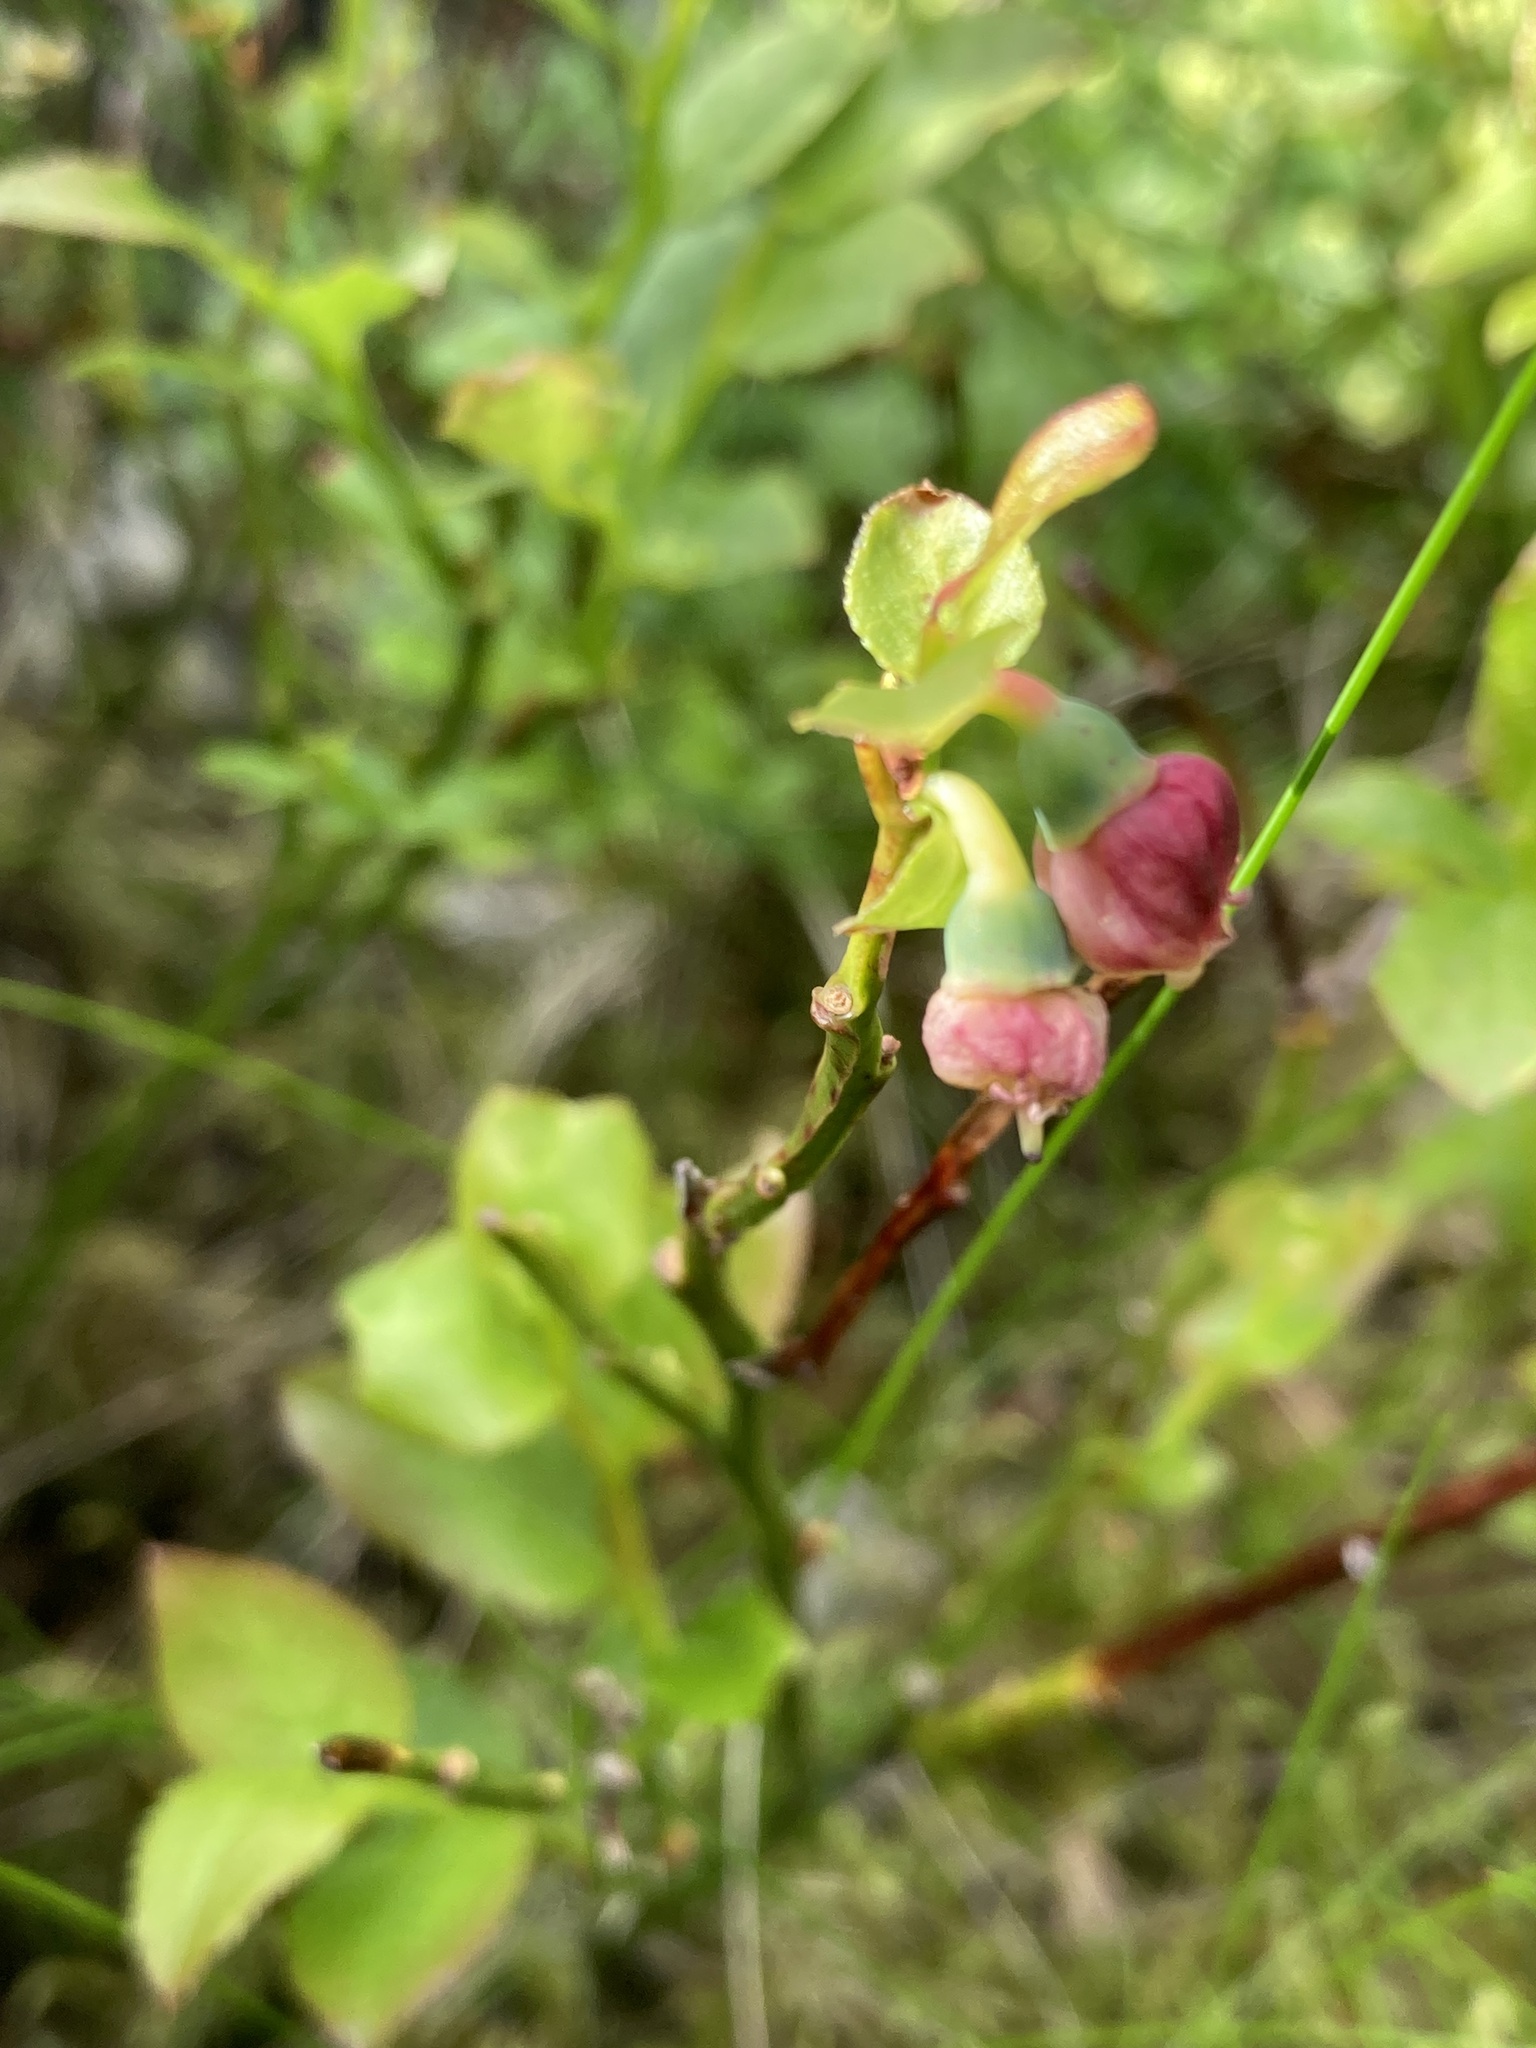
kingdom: Plantae
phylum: Tracheophyta
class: Magnoliopsida
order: Ericales
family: Ericaceae
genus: Vaccinium
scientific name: Vaccinium myrtillus
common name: Bilberry
